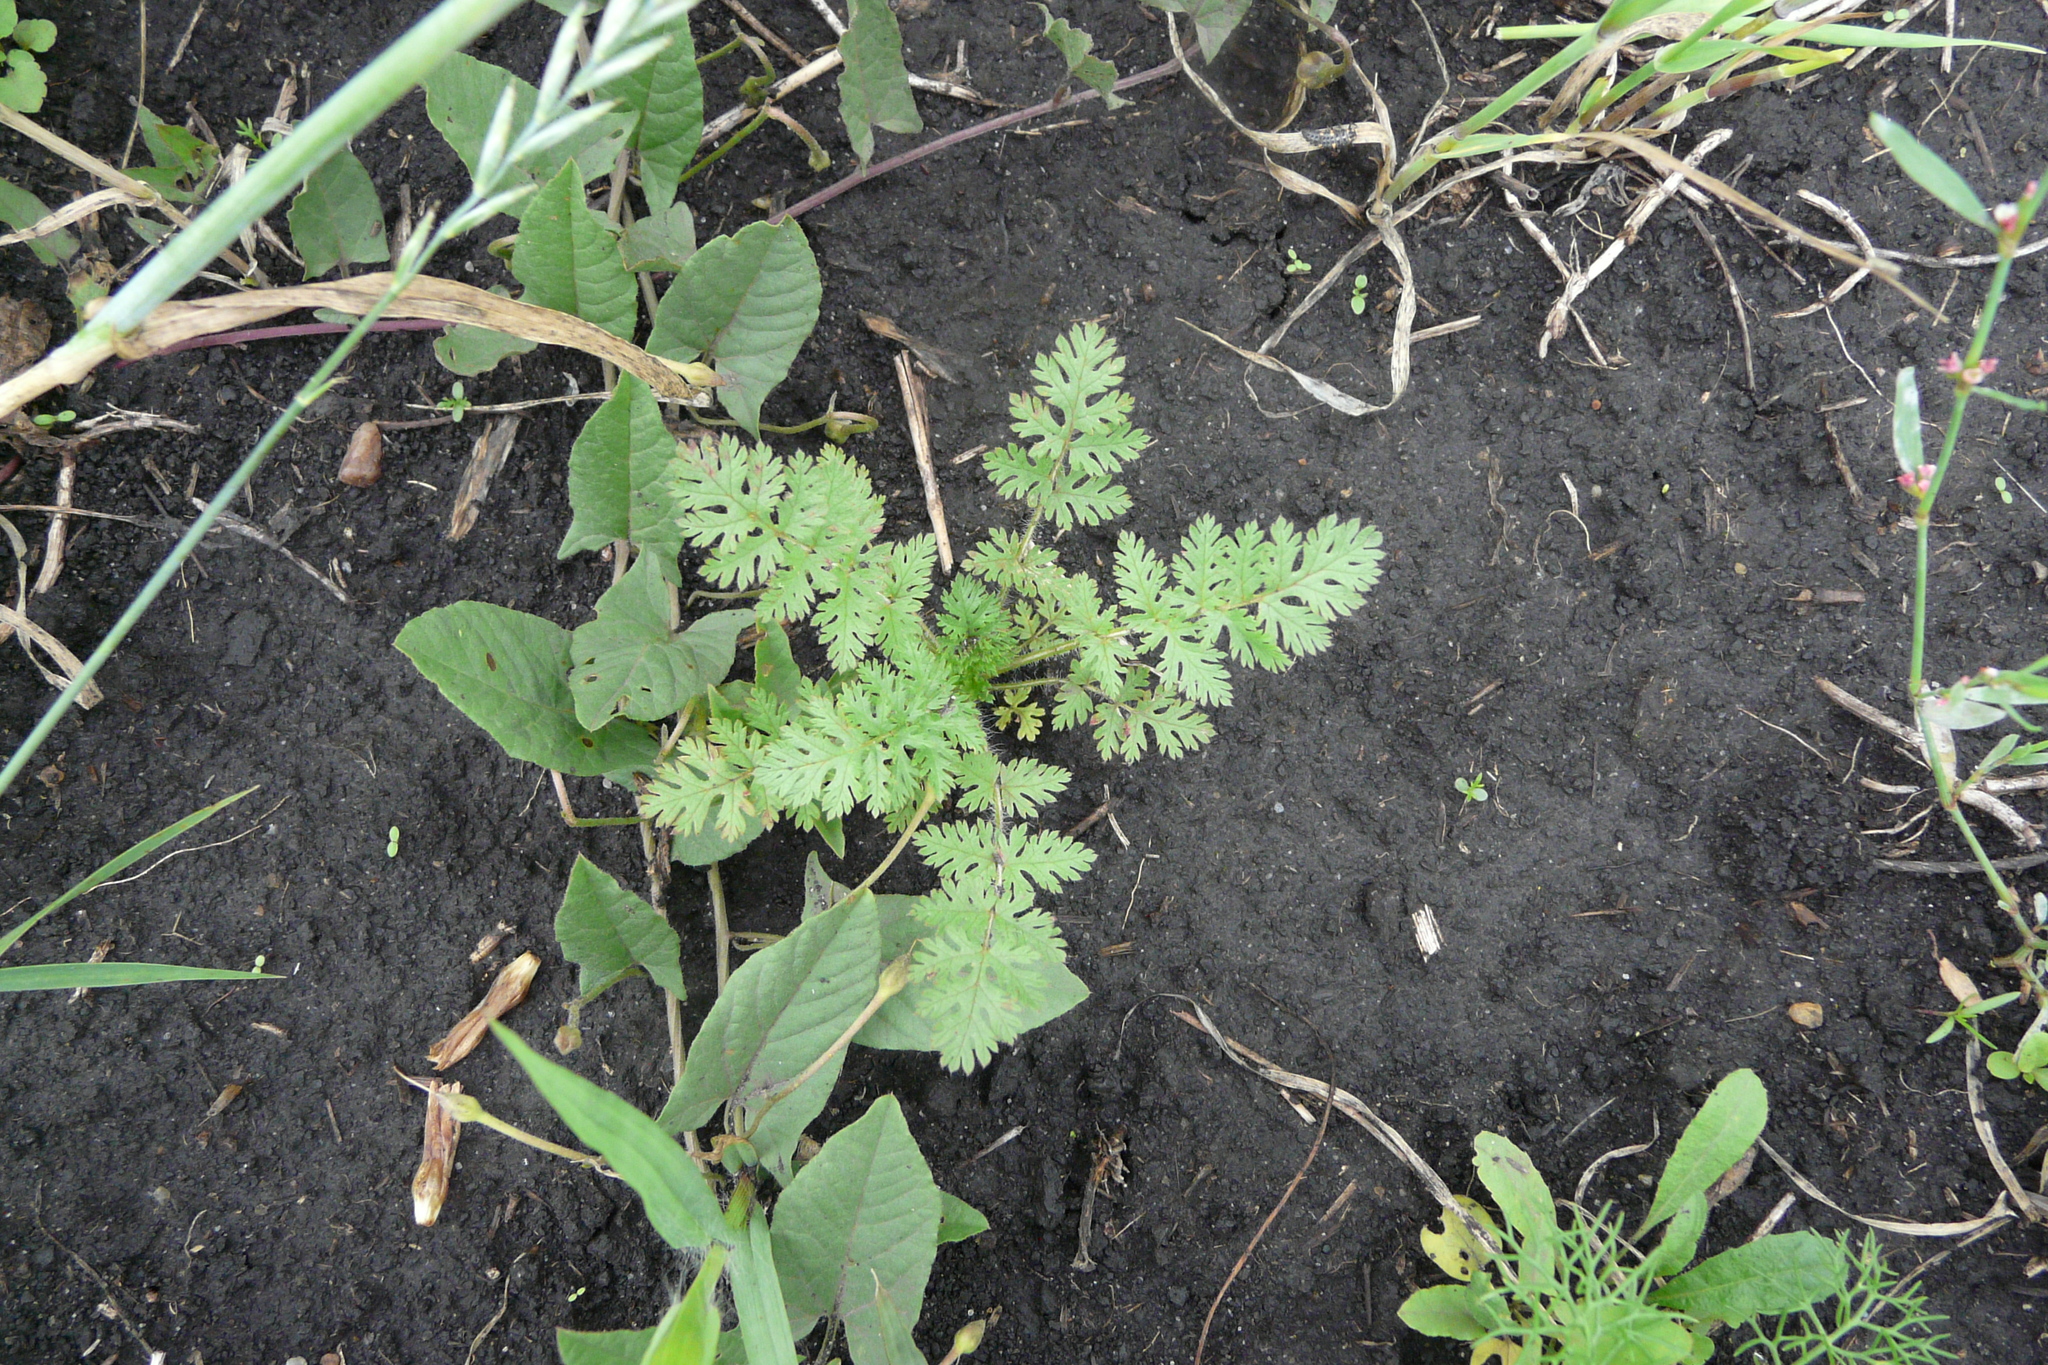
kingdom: Plantae
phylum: Tracheophyta
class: Magnoliopsida
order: Geraniales
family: Geraniaceae
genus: Erodium
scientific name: Erodium cicutarium
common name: Common stork's-bill
